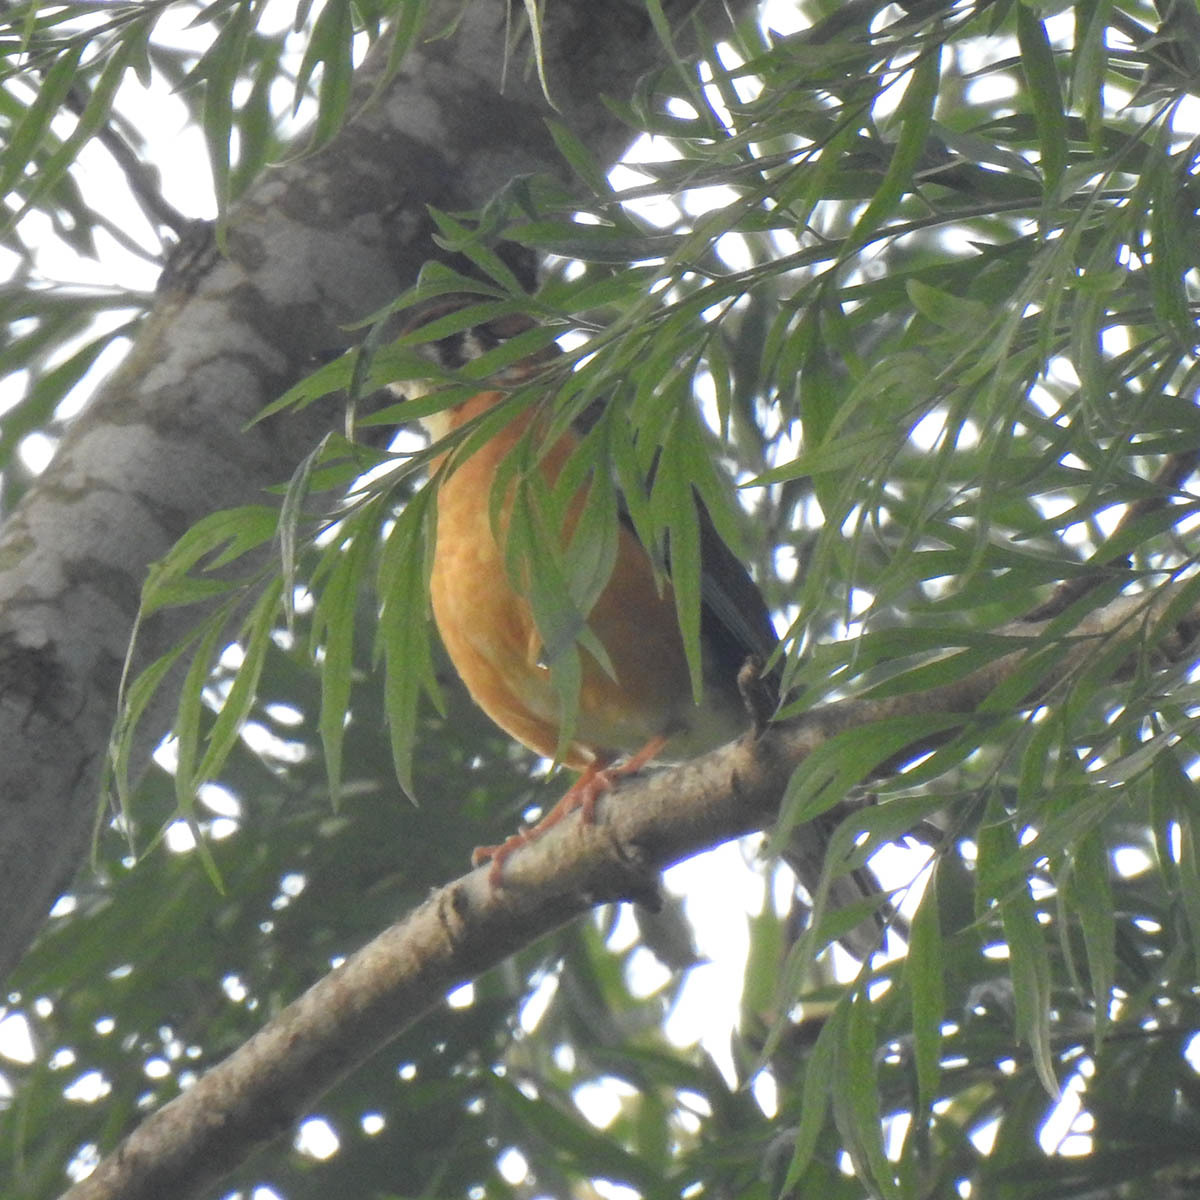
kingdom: Animalia
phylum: Chordata
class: Aves
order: Passeriformes
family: Turdidae
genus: Geokichla
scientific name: Geokichla citrina
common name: Orange-headed thrush
